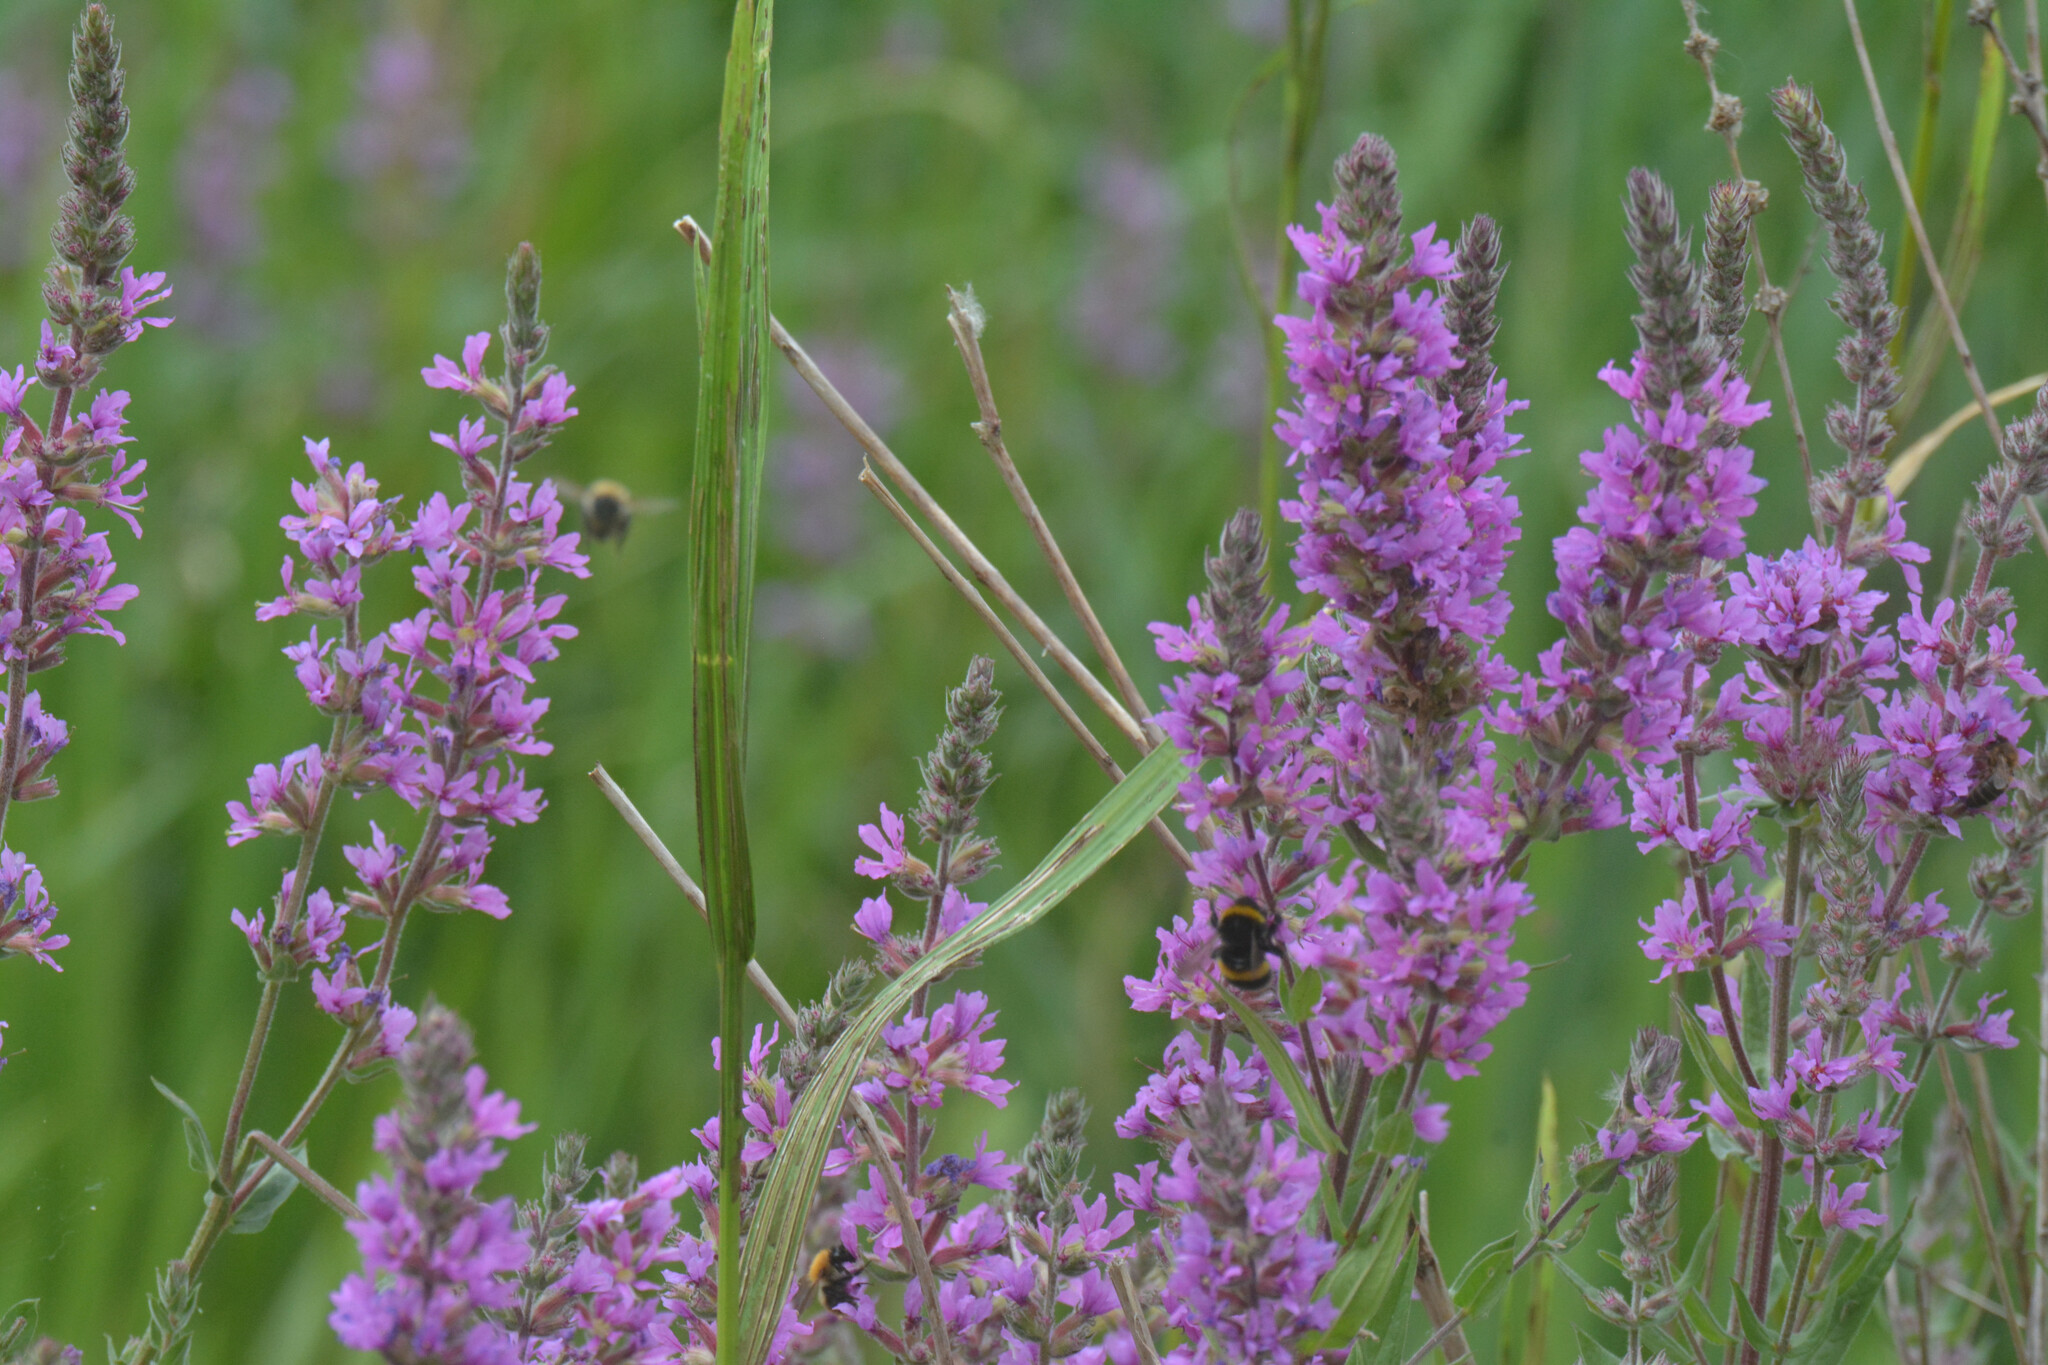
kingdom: Plantae
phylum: Tracheophyta
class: Magnoliopsida
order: Myrtales
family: Lythraceae
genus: Lythrum
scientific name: Lythrum salicaria
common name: Purple loosestrife
